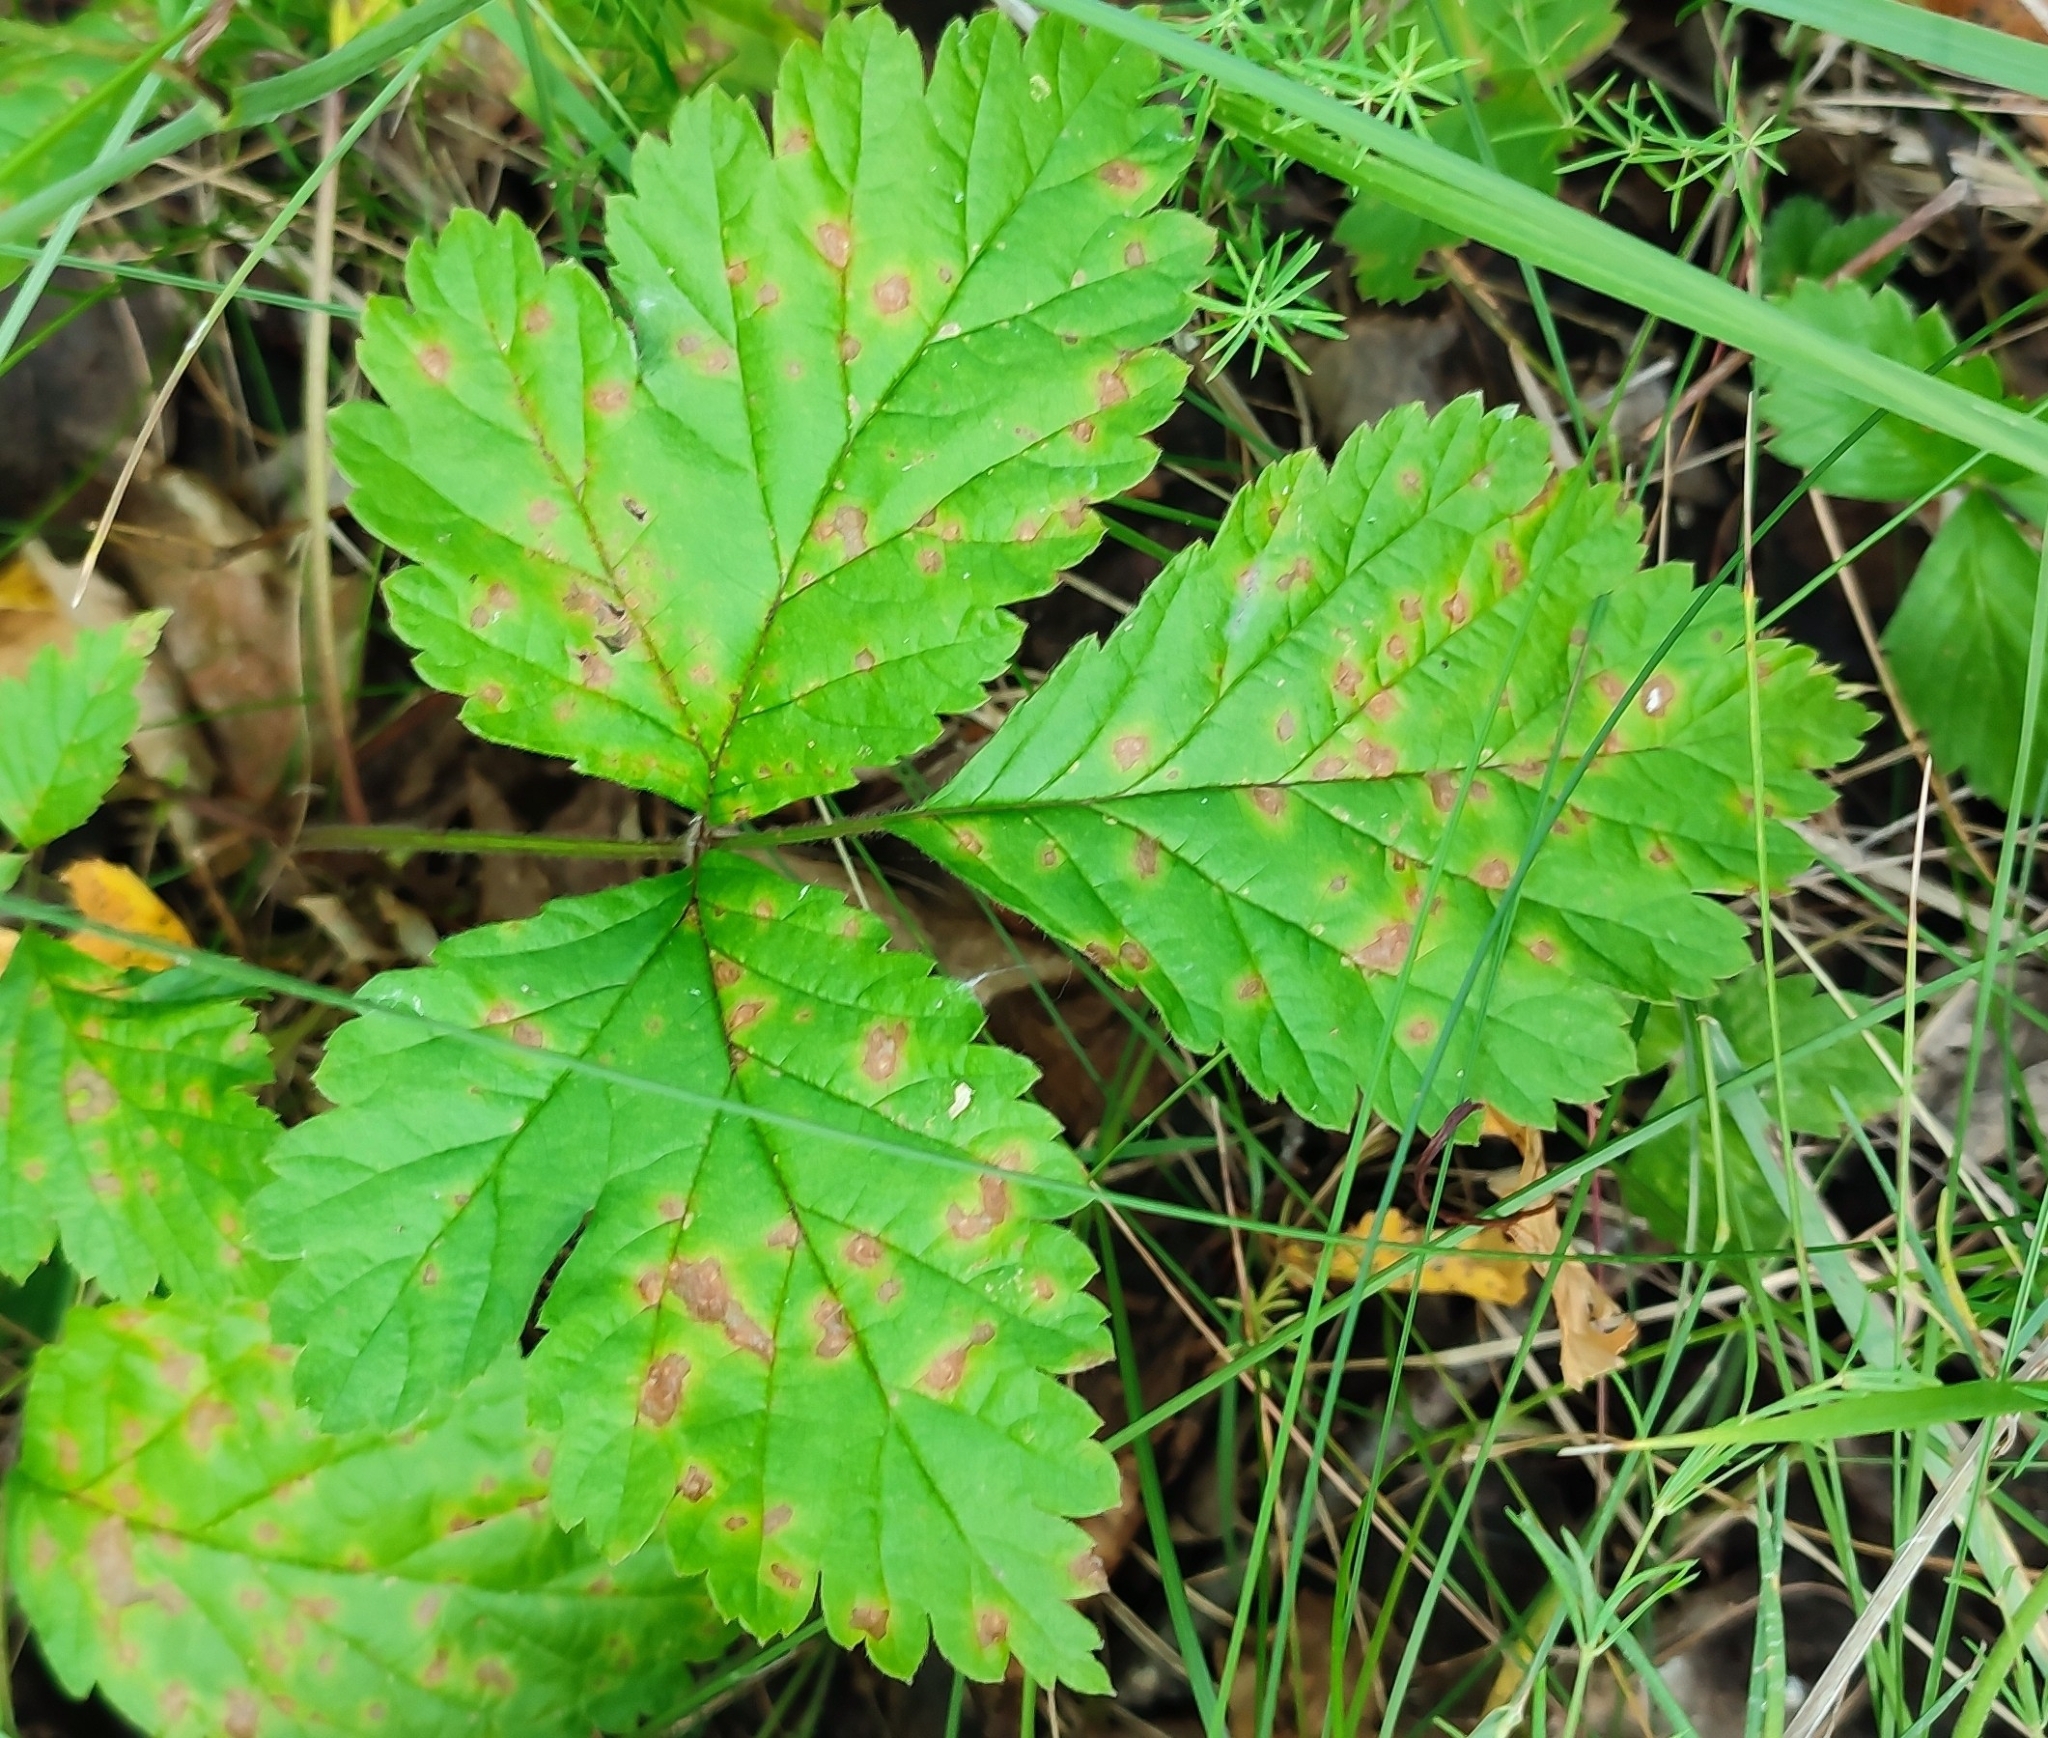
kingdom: Plantae
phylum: Tracheophyta
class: Magnoliopsida
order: Rosales
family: Rosaceae
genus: Rubus
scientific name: Rubus saxatilis
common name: Stone bramble
